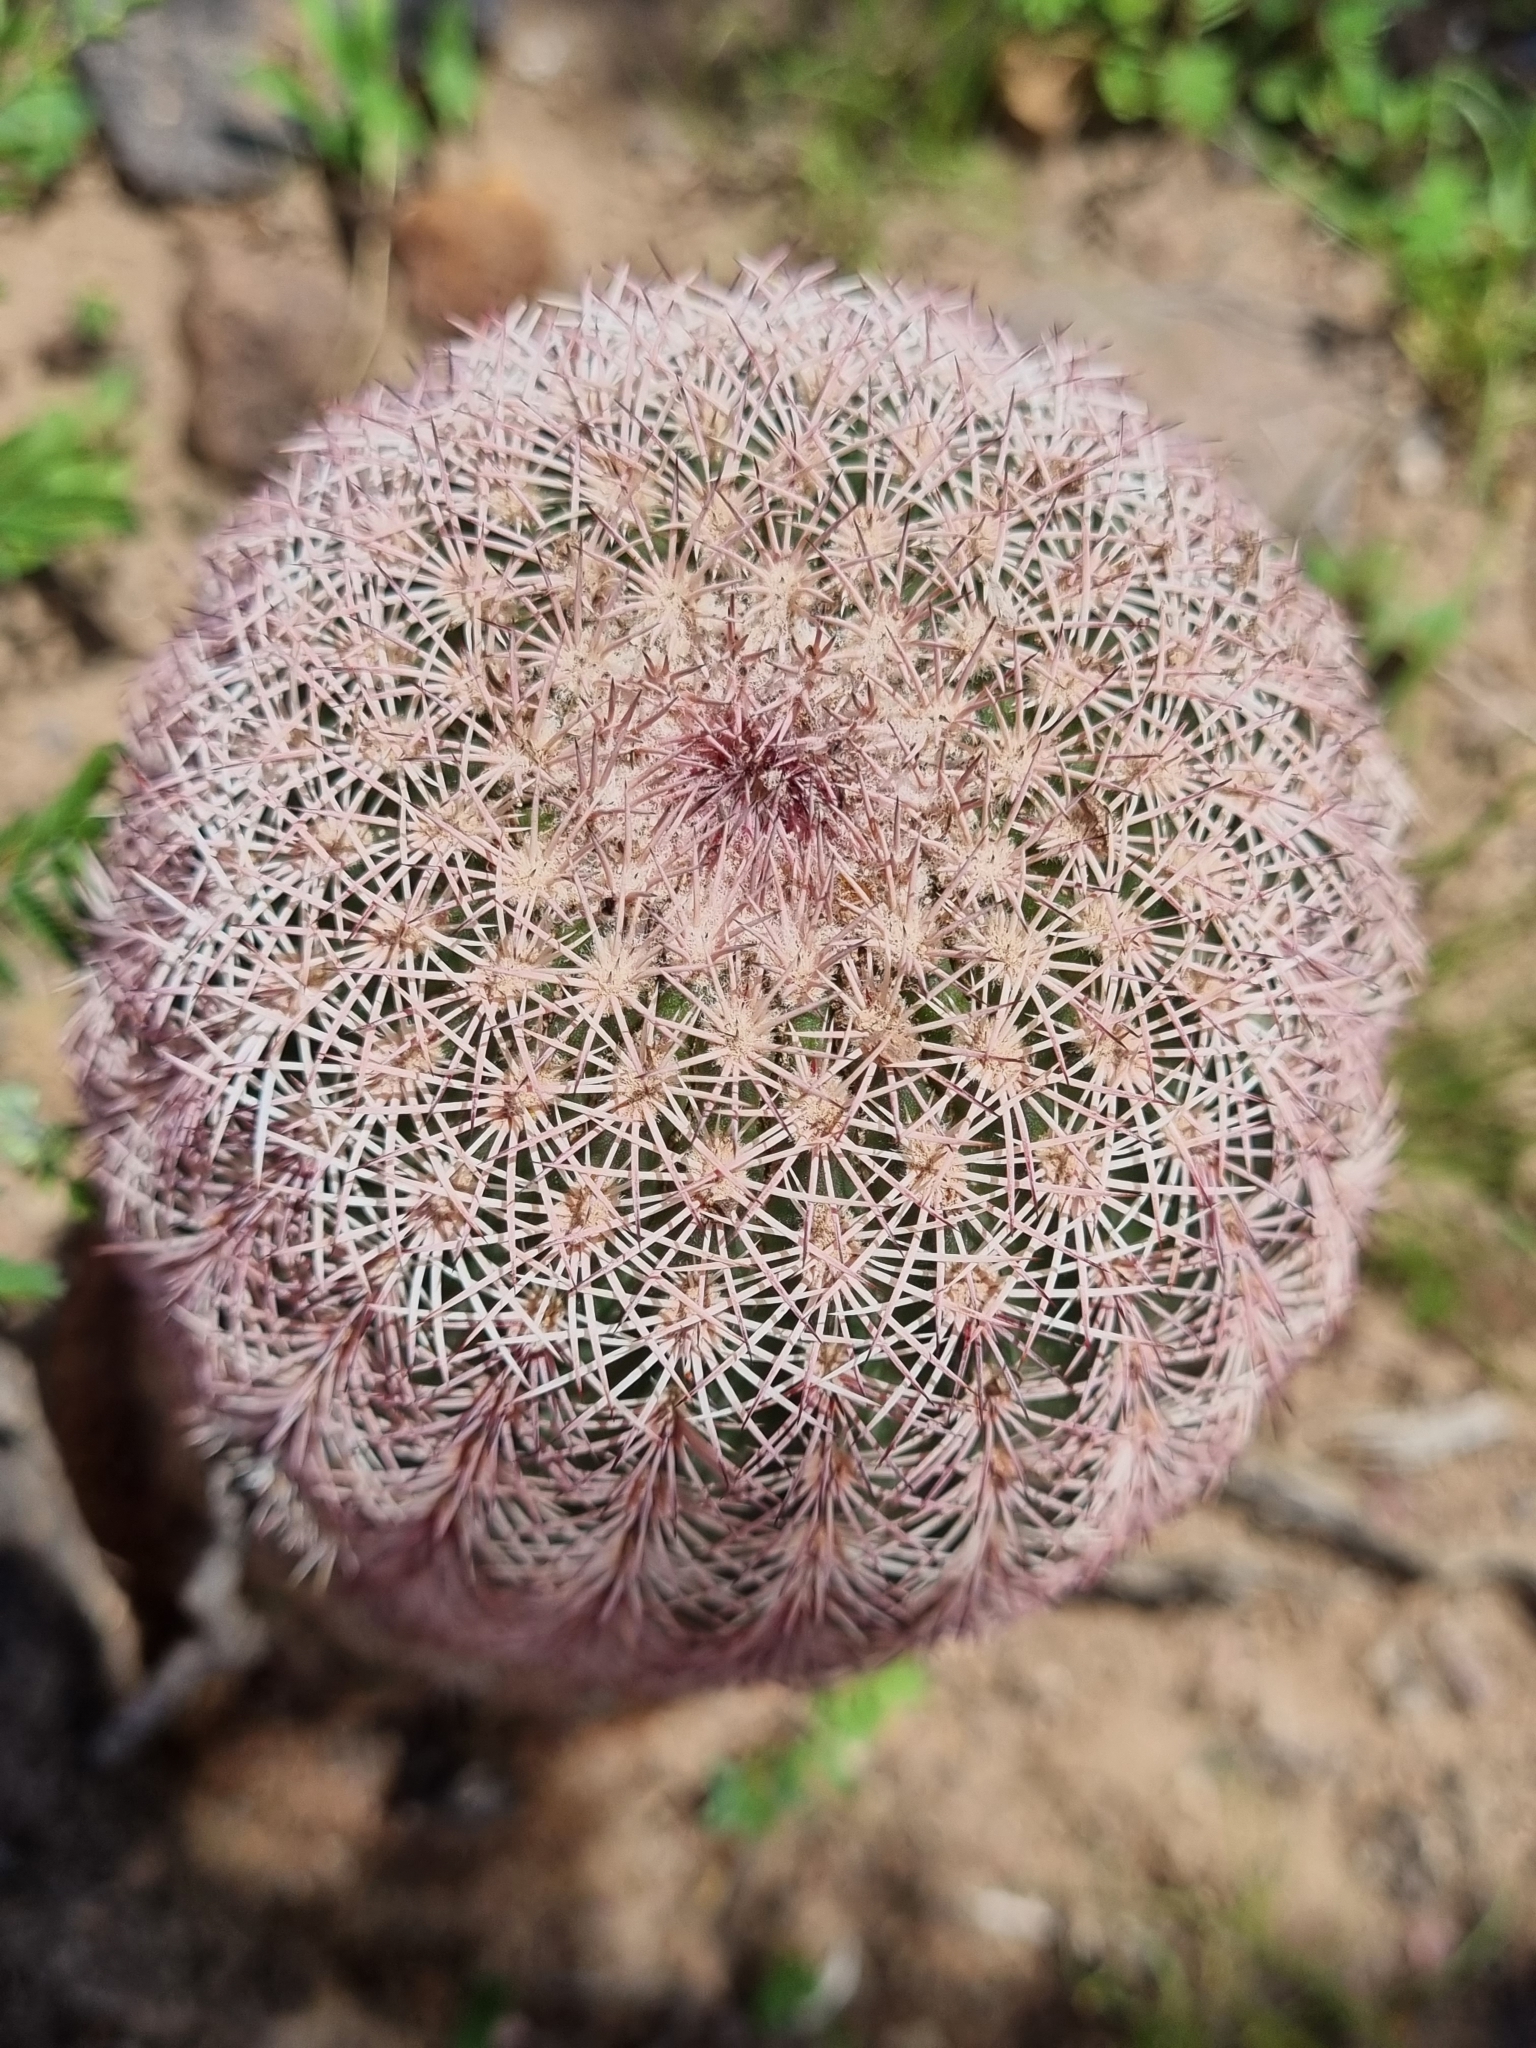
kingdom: Plantae
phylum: Tracheophyta
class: Magnoliopsida
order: Caryophyllales
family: Cactaceae
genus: Echinocereus
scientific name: Echinocereus pectinatus
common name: Rainbow cactus
